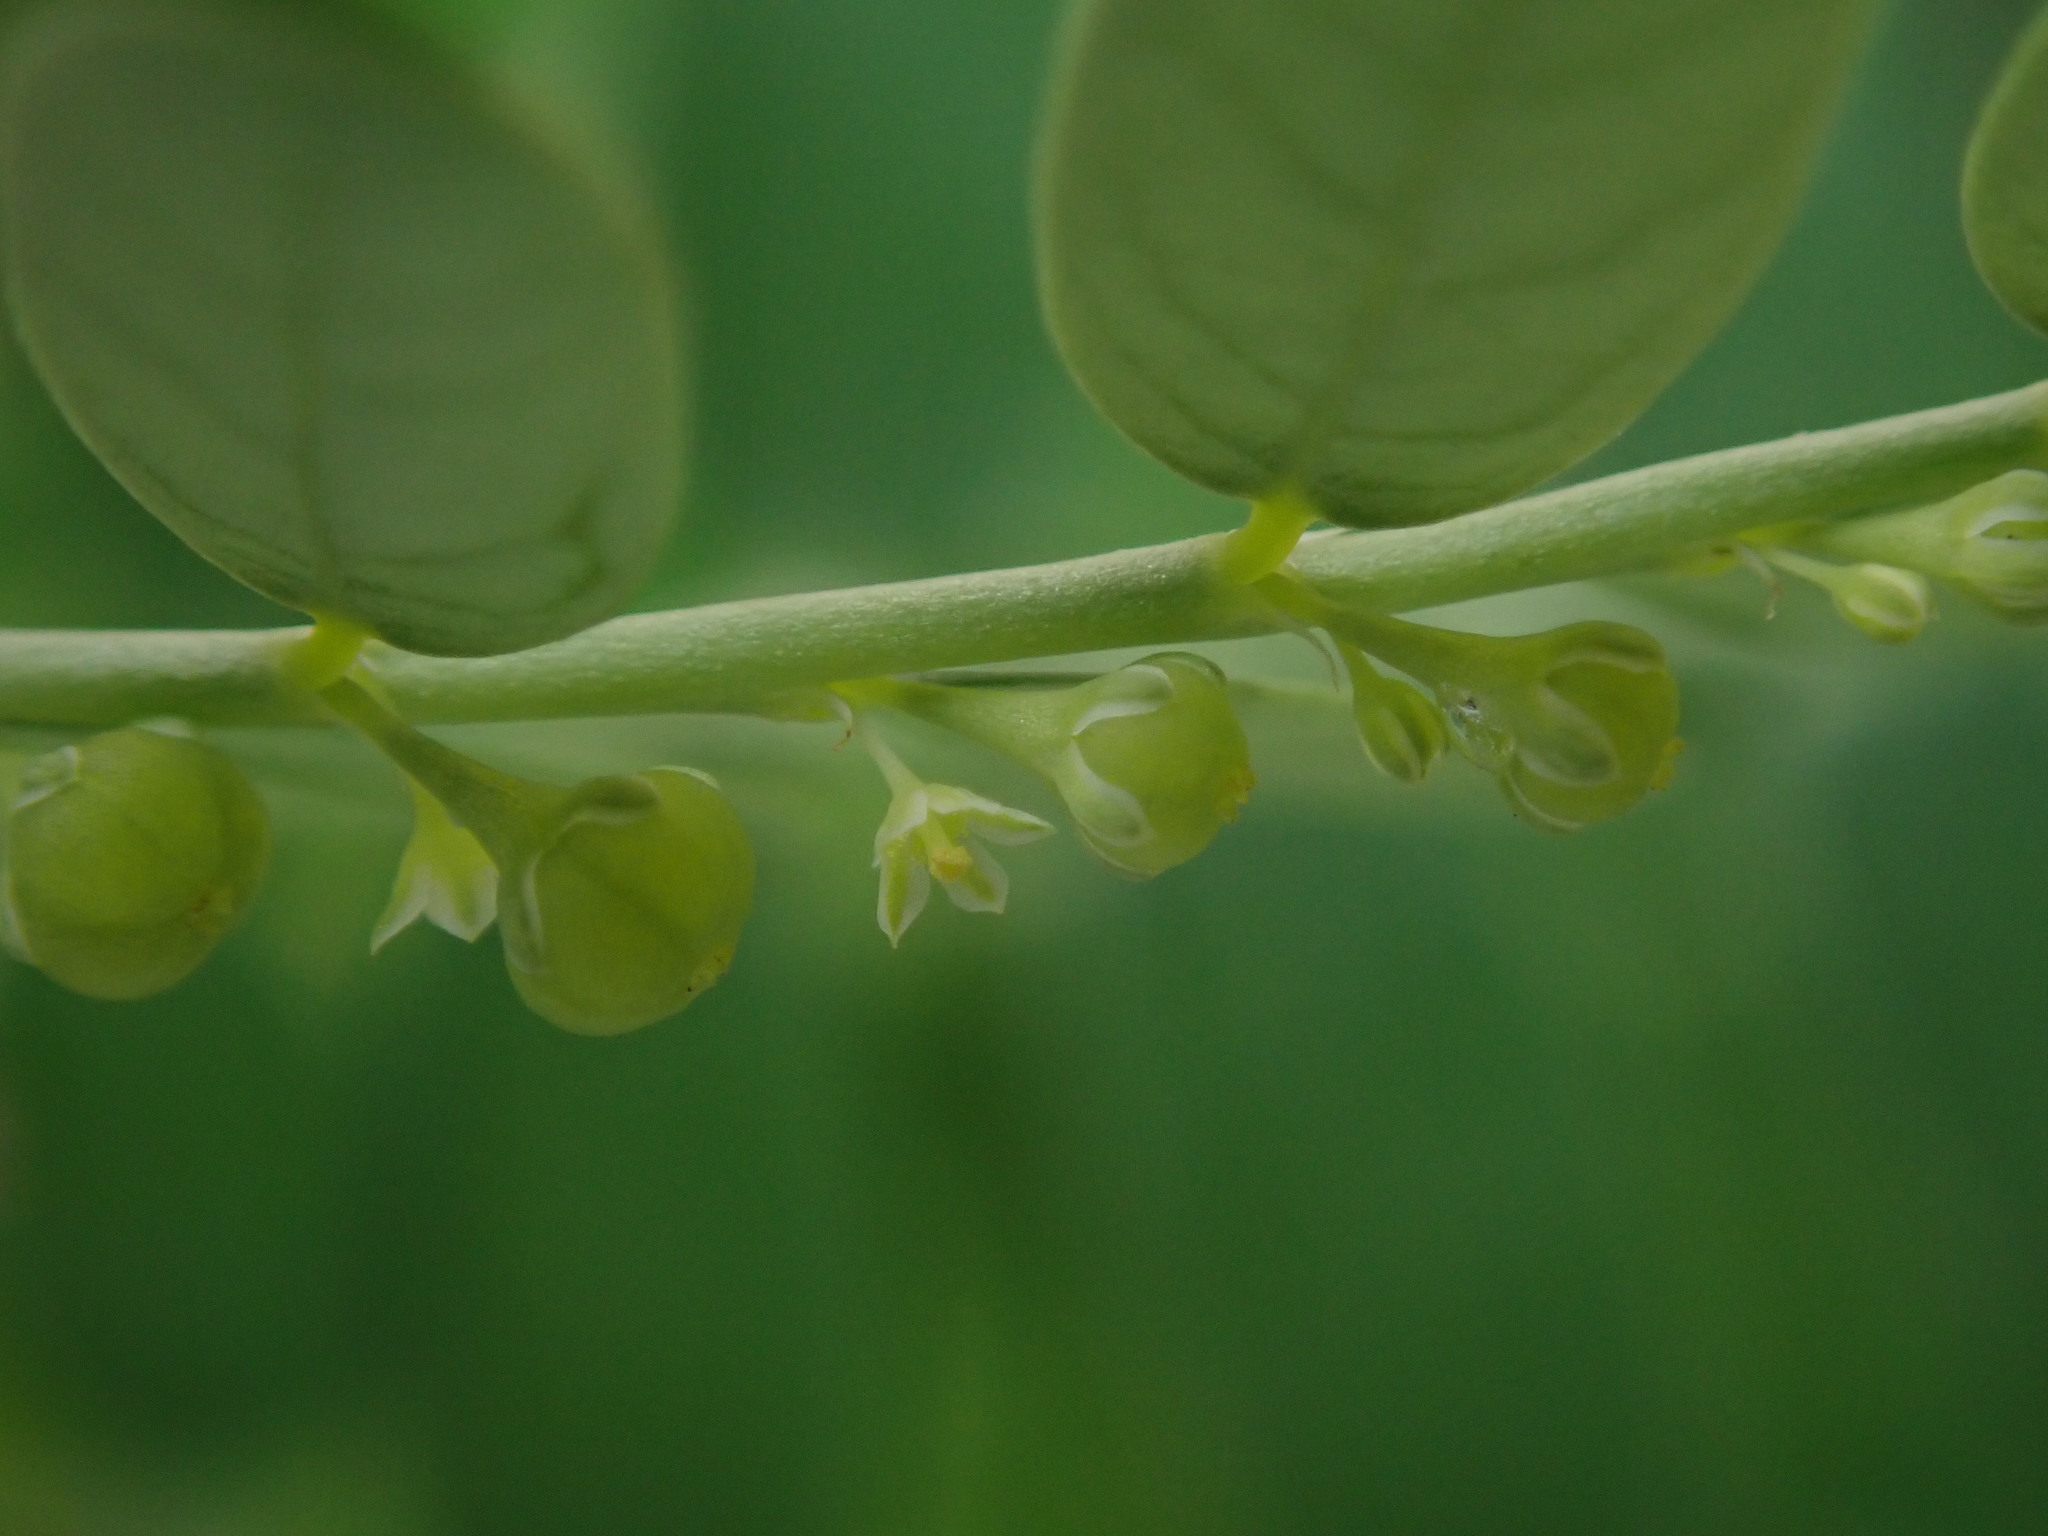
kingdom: Plantae
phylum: Tracheophyta
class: Magnoliopsida
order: Malpighiales
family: Phyllanthaceae
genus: Phyllanthus
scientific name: Phyllanthus amarus
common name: Carry me seed
